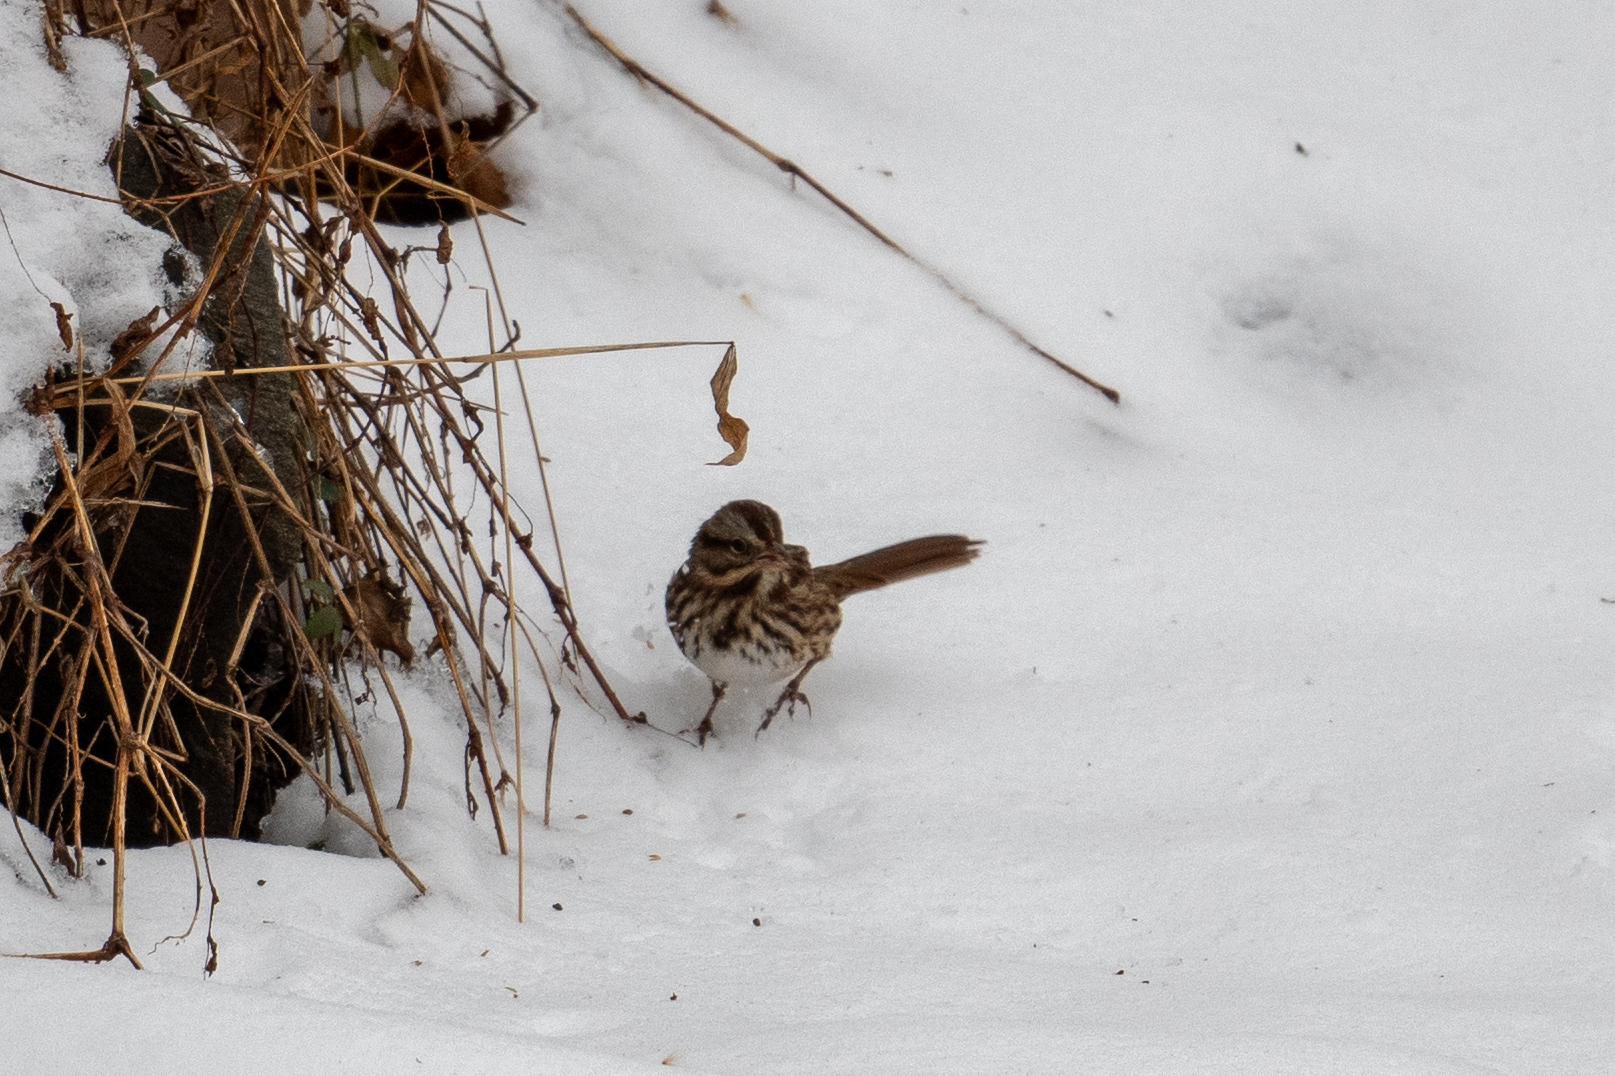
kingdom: Animalia
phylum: Chordata
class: Aves
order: Passeriformes
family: Passerellidae
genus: Melospiza
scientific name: Melospiza melodia
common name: Song sparrow
